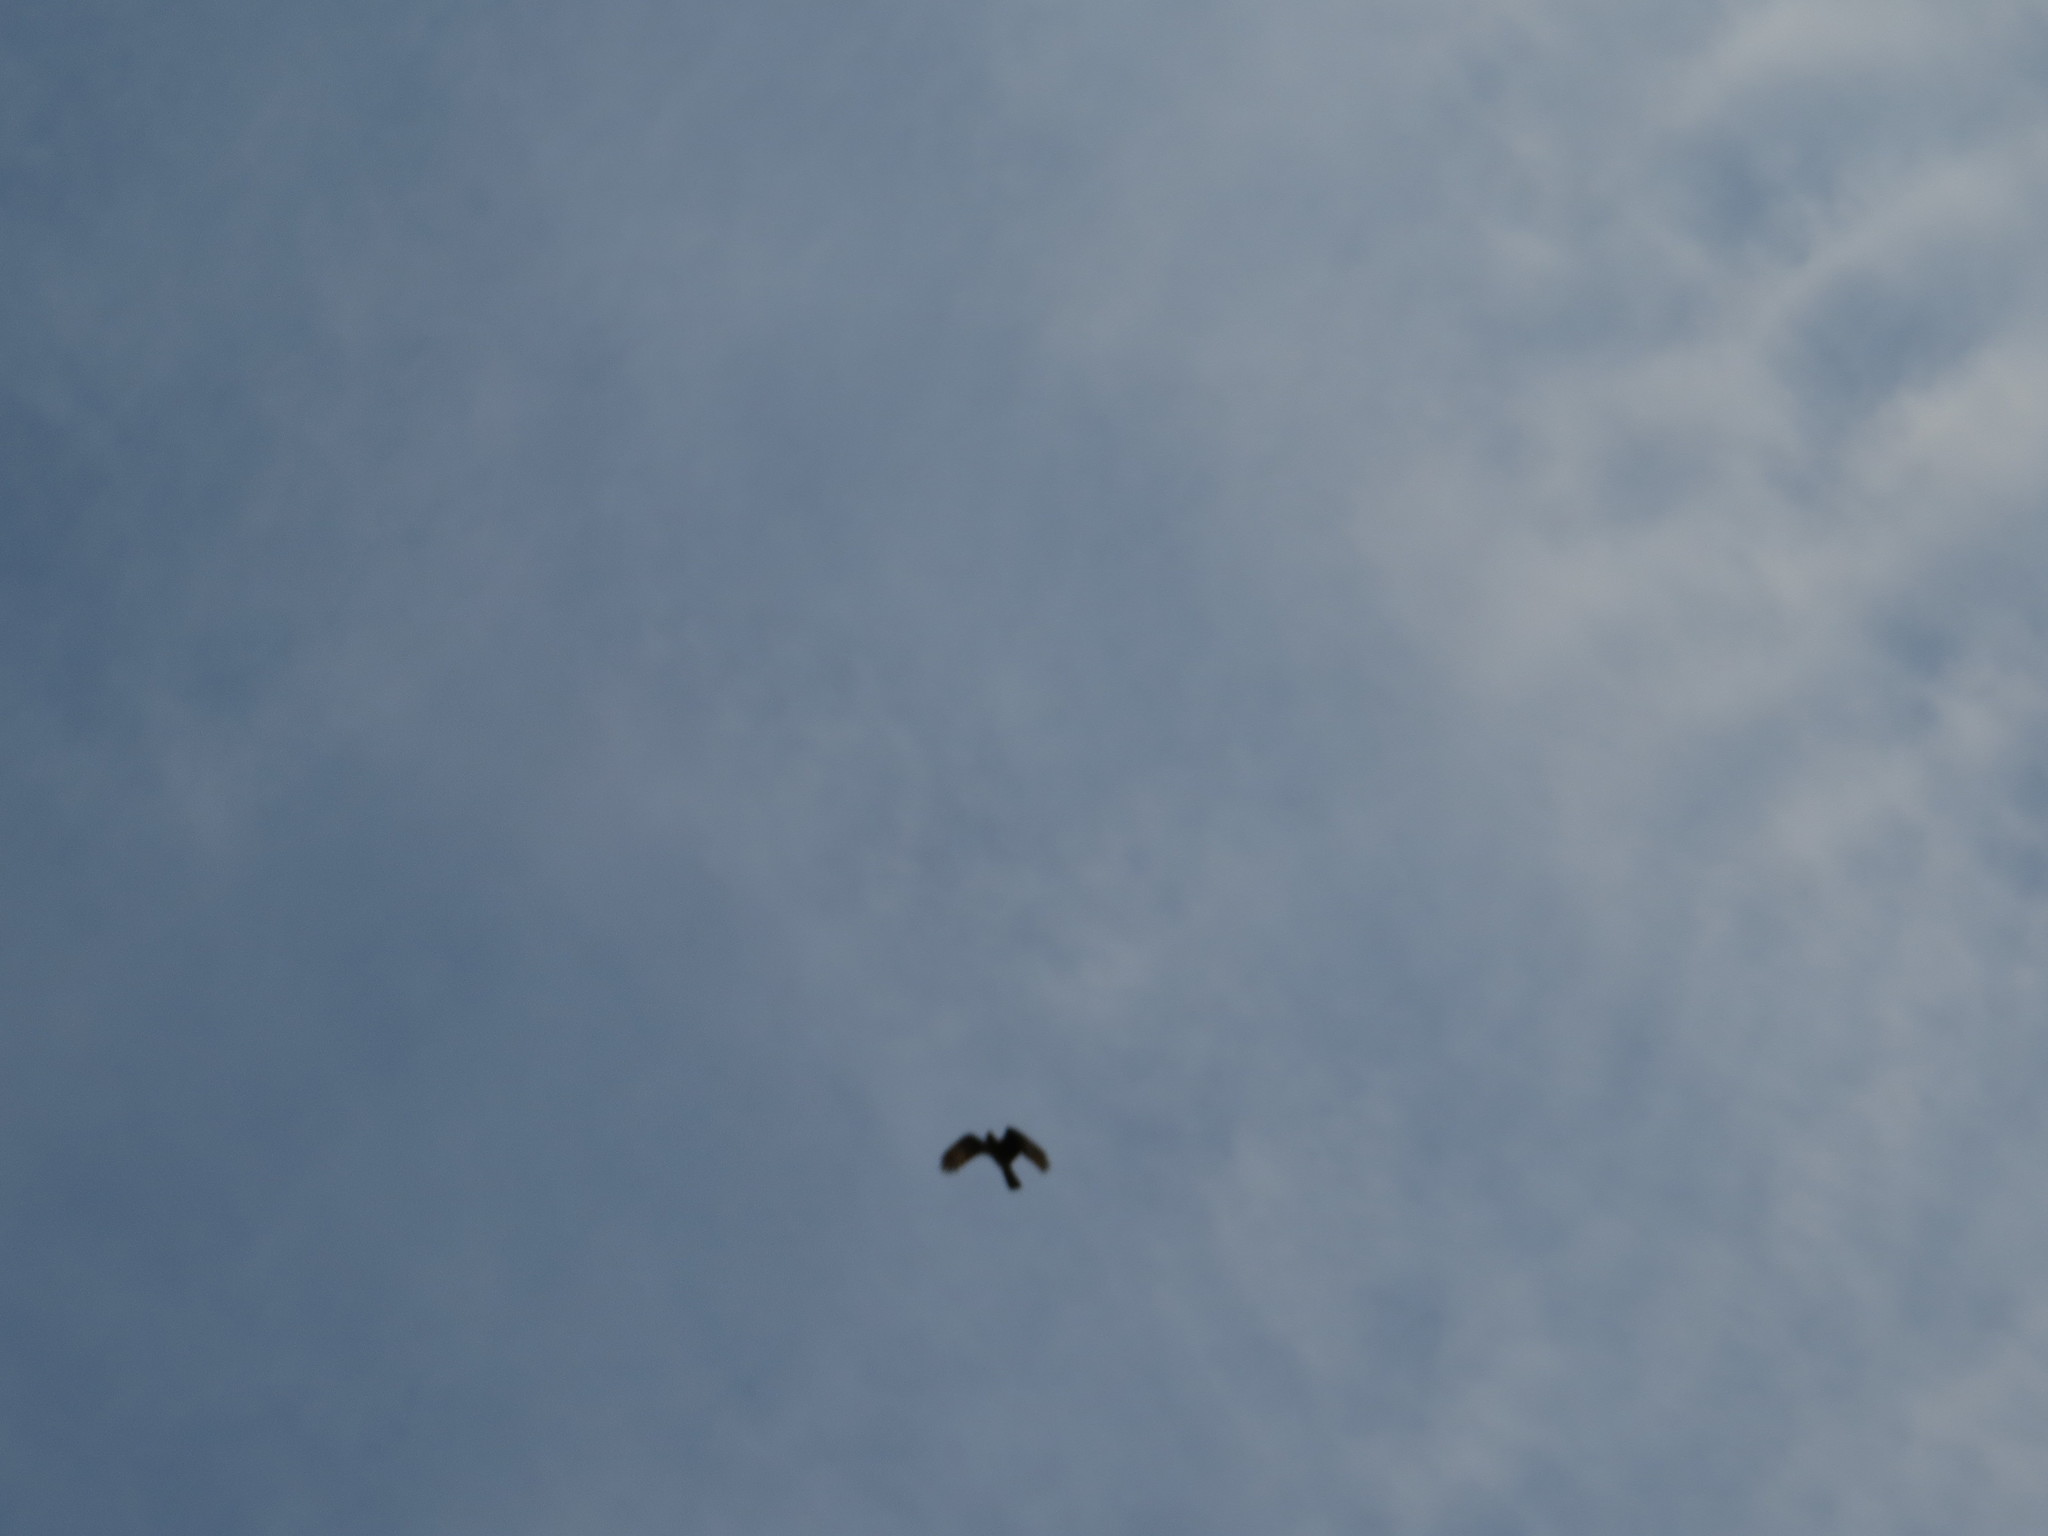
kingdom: Animalia
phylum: Chordata
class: Aves
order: Falconiformes
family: Falconidae
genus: Daptrius
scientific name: Daptrius
